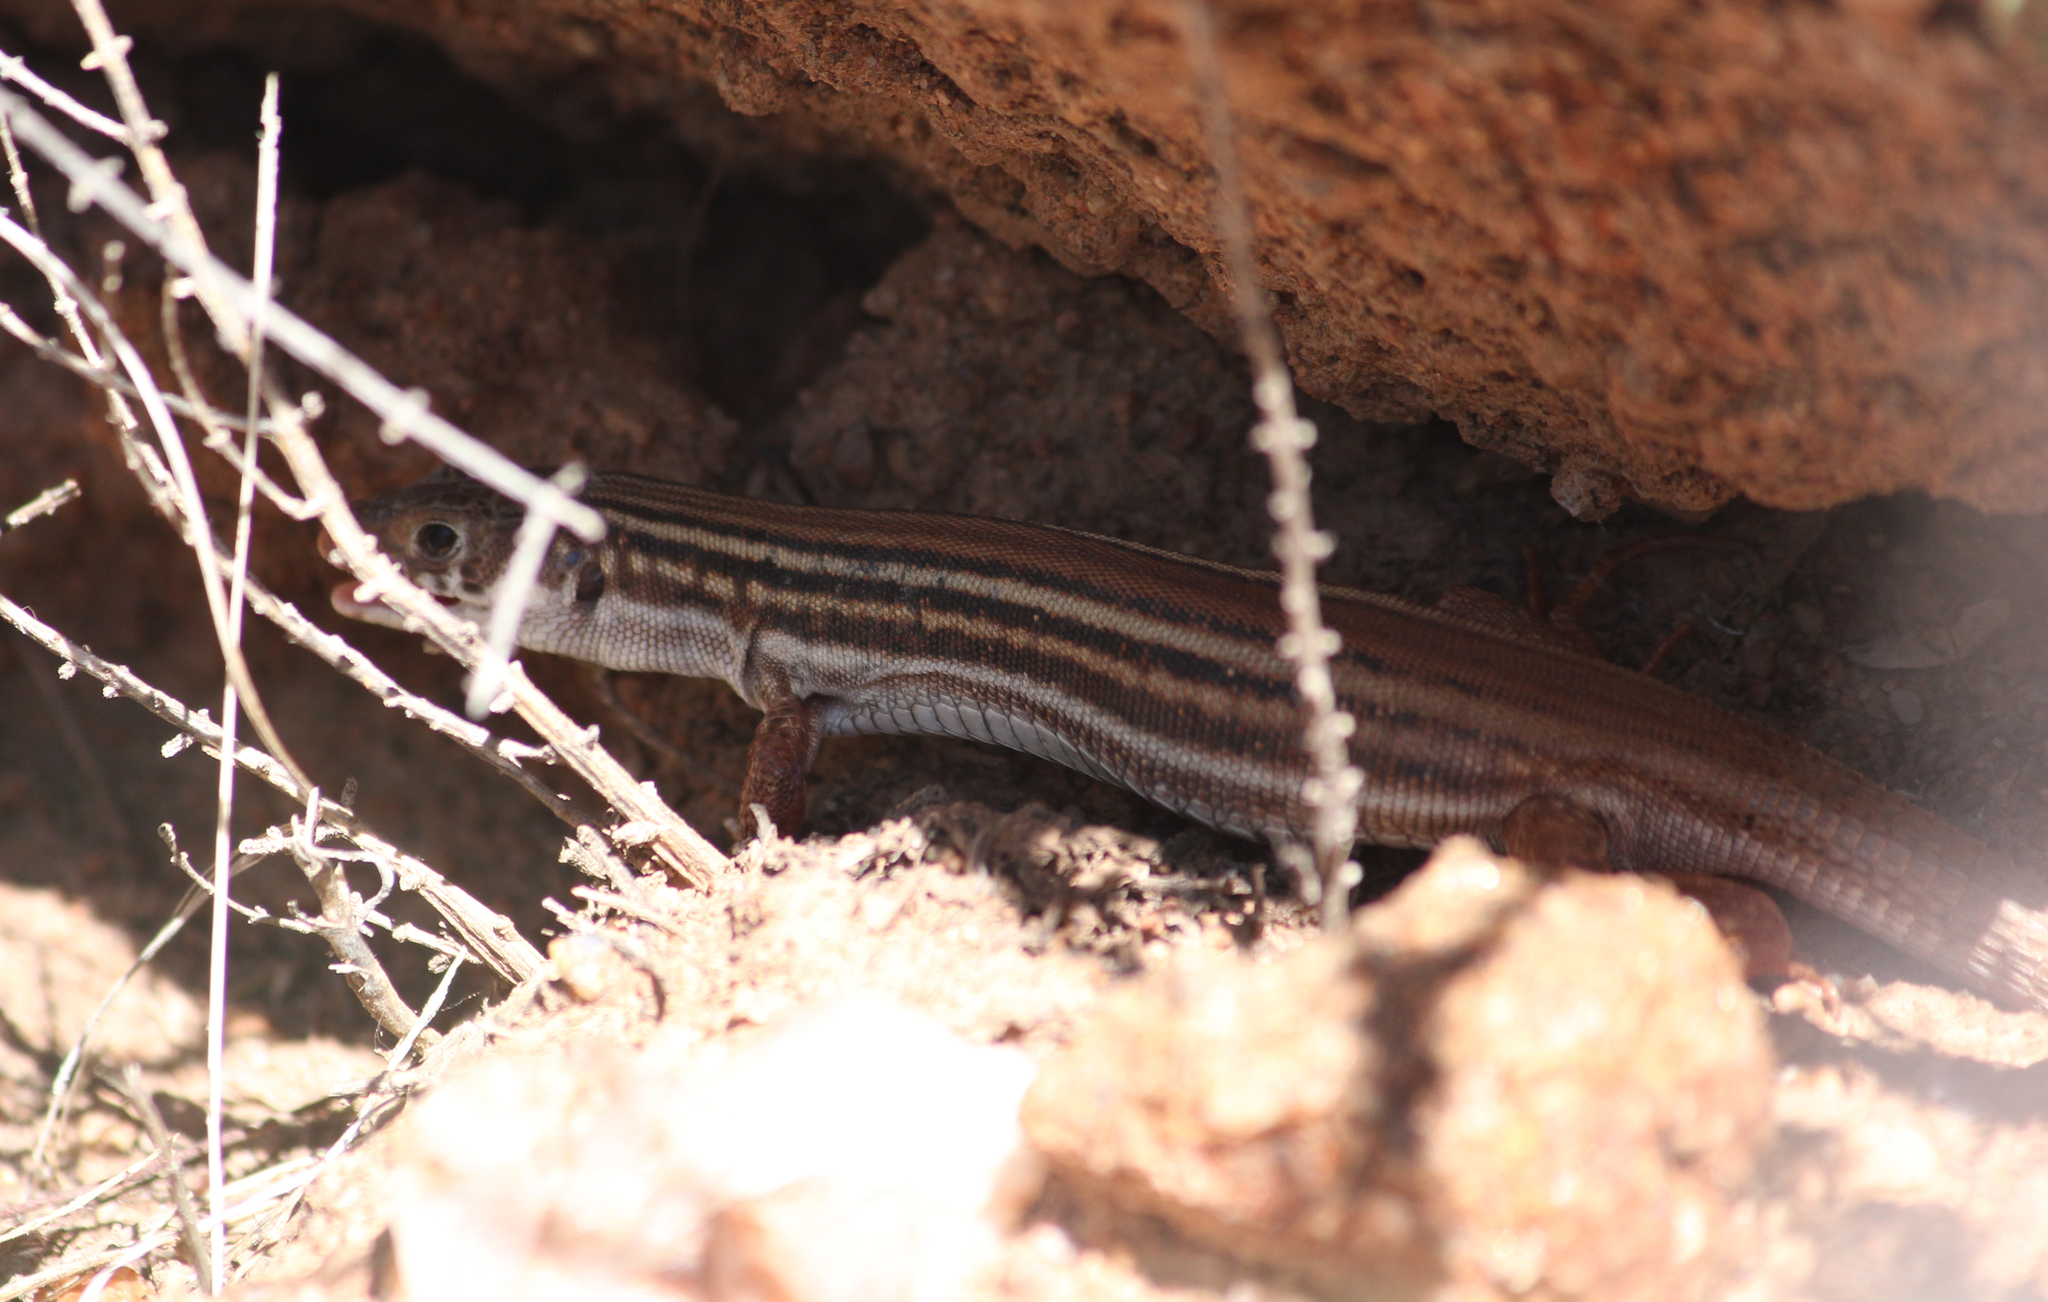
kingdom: Animalia
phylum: Chordata
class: Squamata
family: Lacertidae
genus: Nucras
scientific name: Nucras tessellata
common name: Western sandveld lizard
